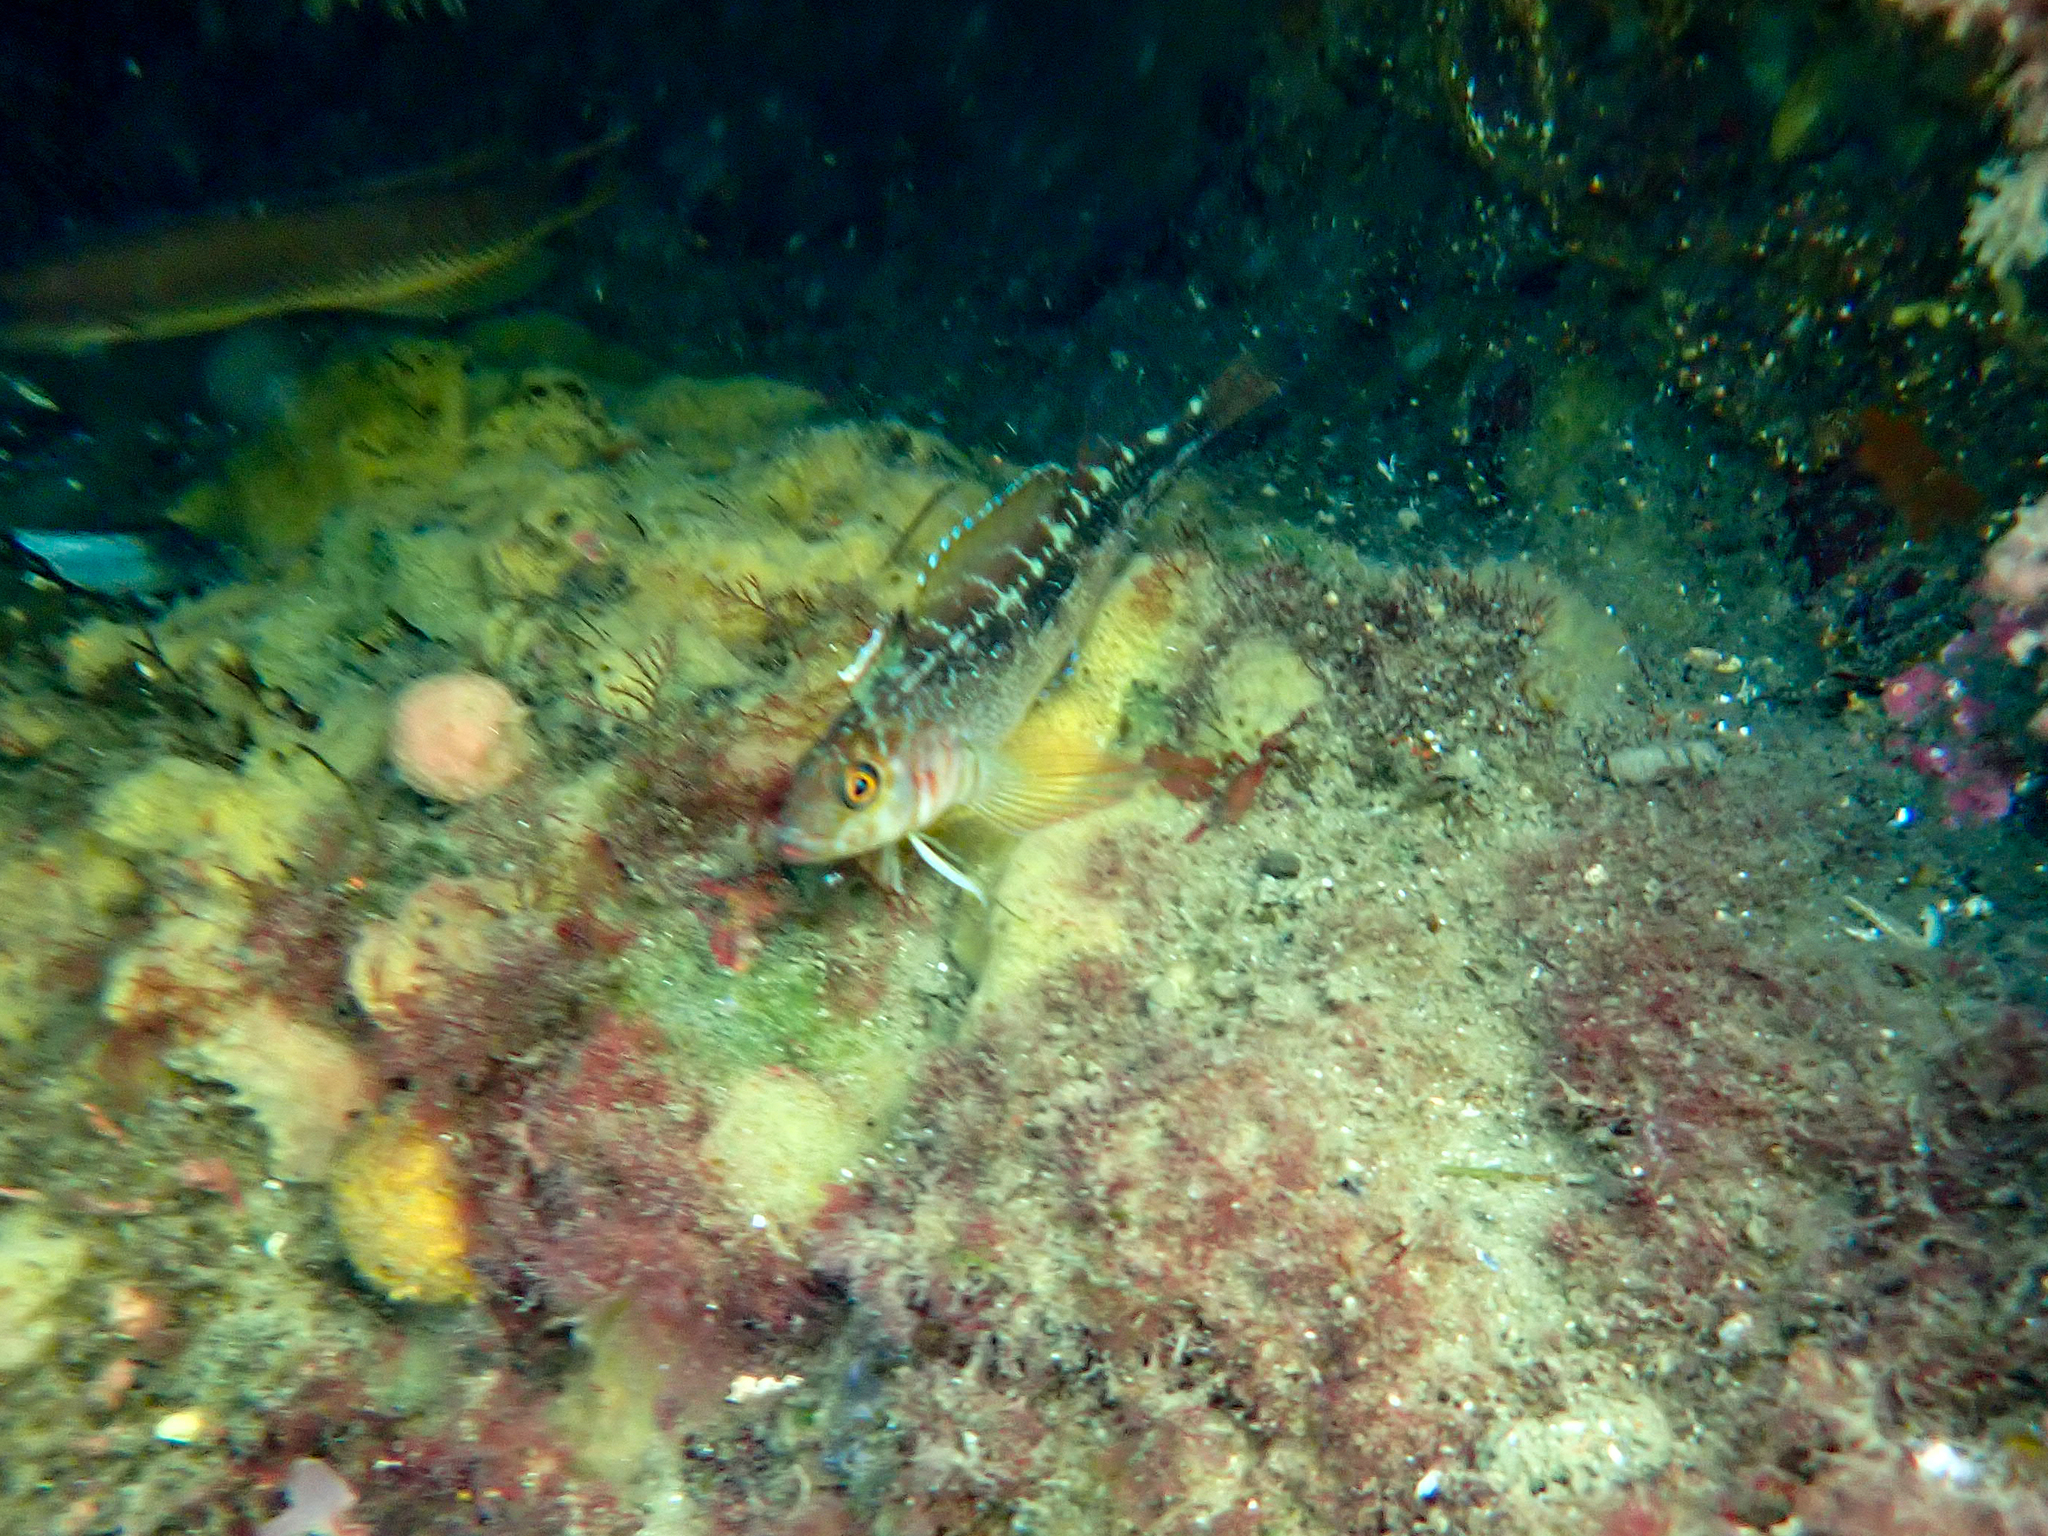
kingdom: Animalia
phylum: Chordata
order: Perciformes
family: Tripterygiidae
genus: Forsterygion
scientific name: Forsterygion varium
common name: Variable triplefin
